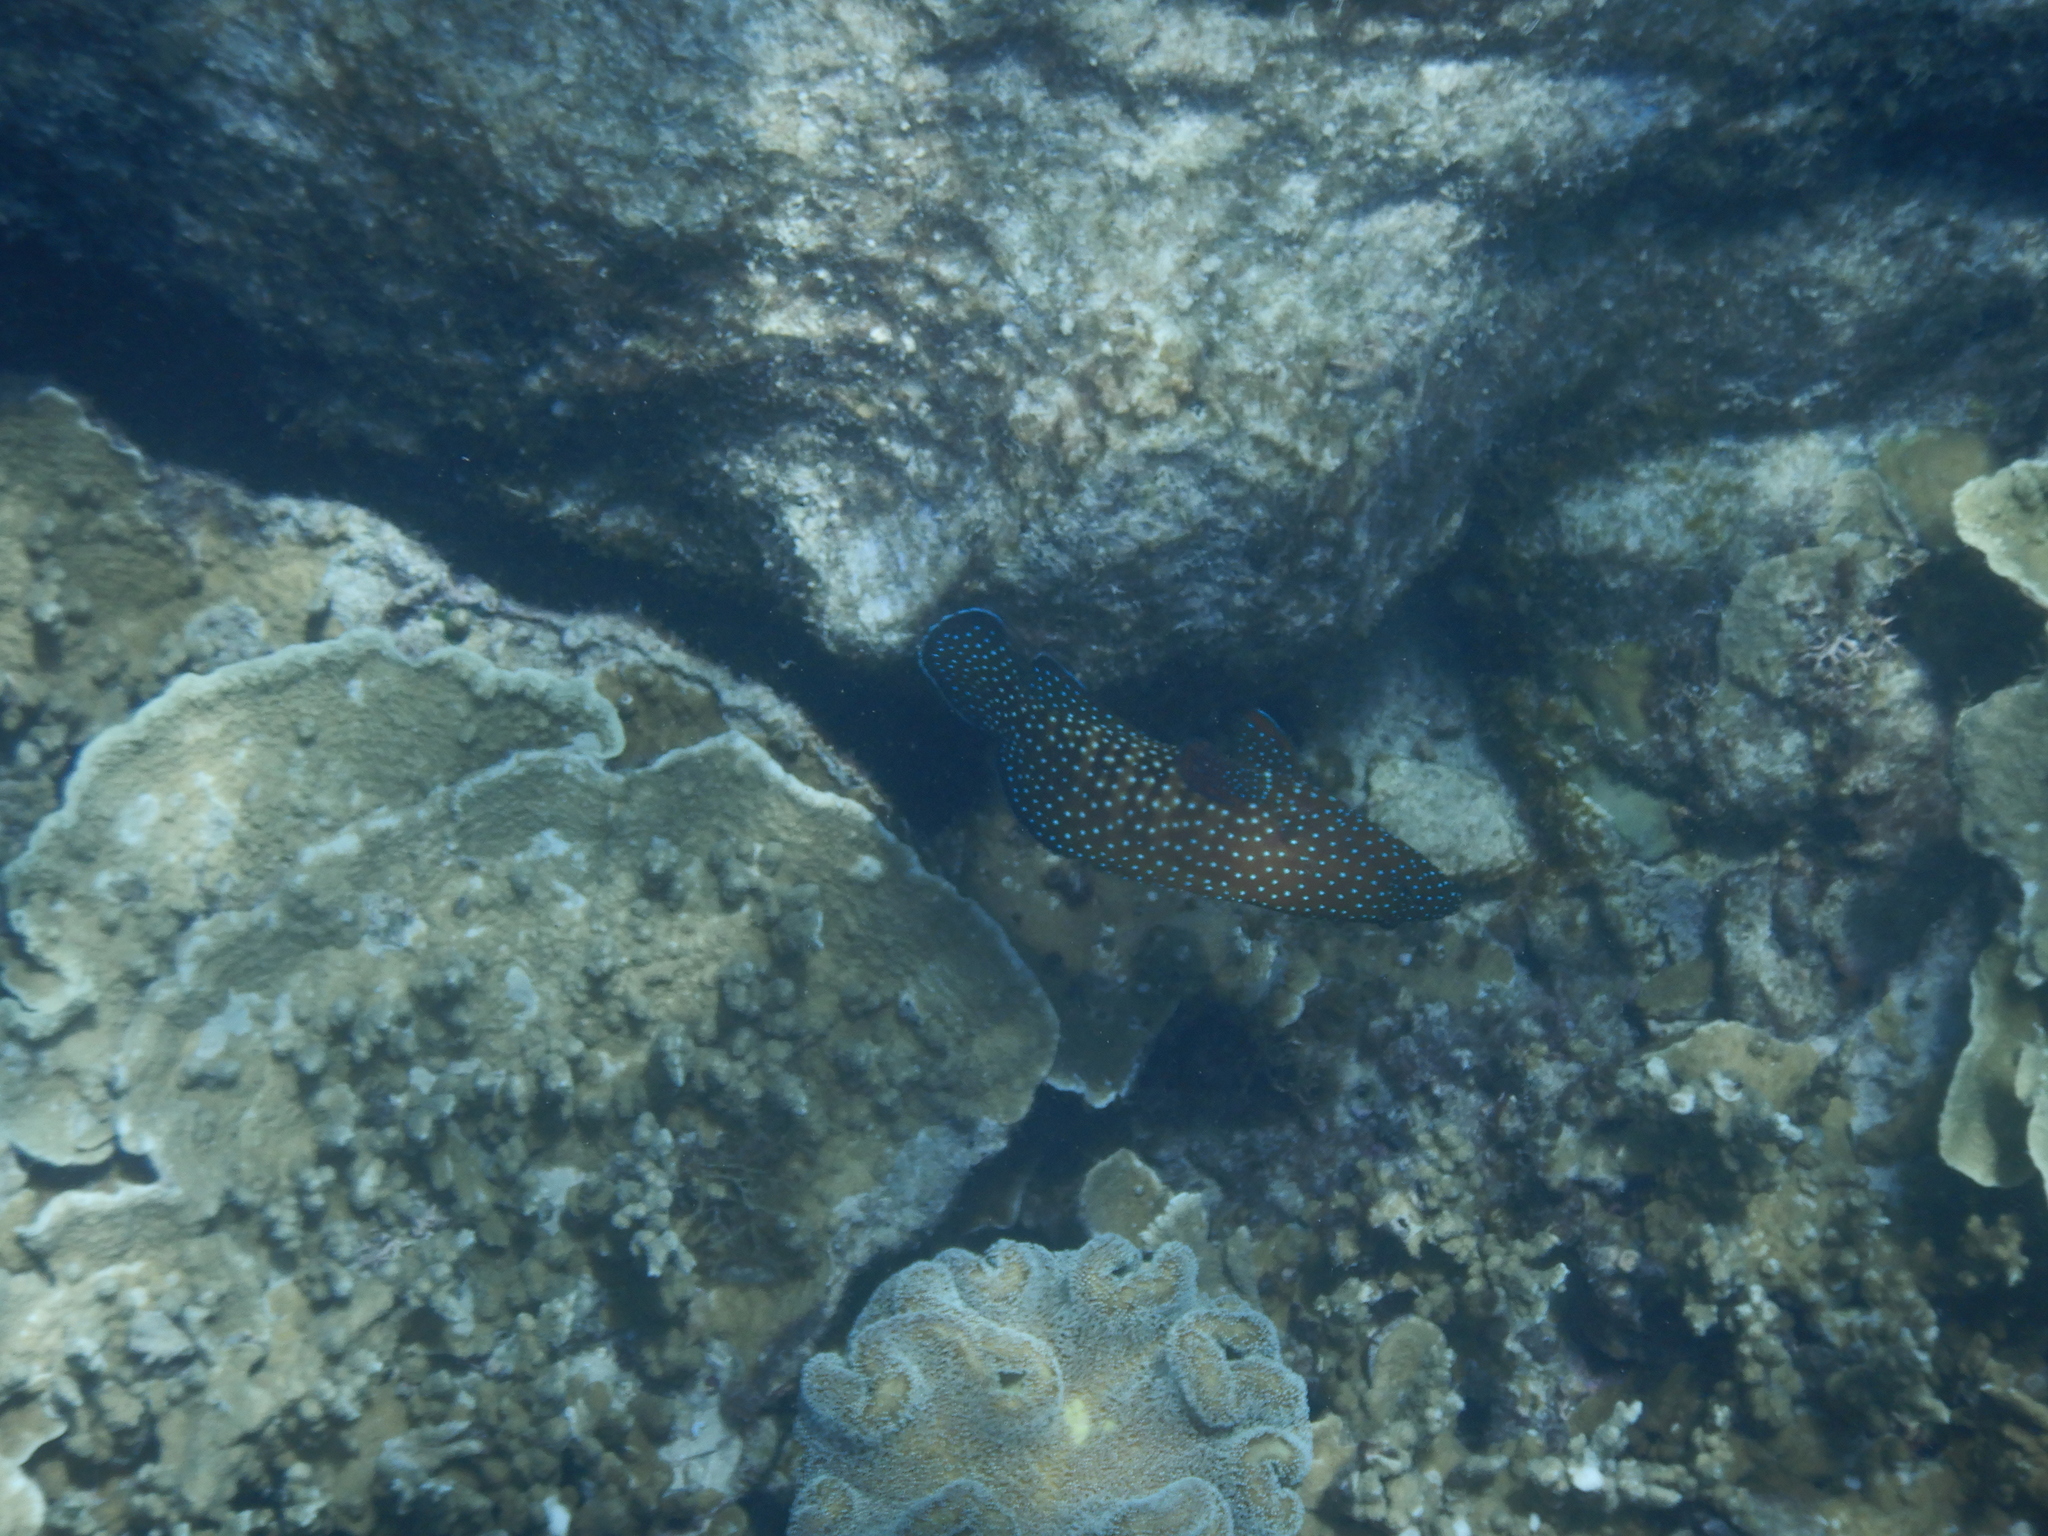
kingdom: Animalia
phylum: Chordata
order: Perciformes
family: Serranidae
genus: Cephalopholis
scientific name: Cephalopholis cyanostigma
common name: Bluespotted hind
